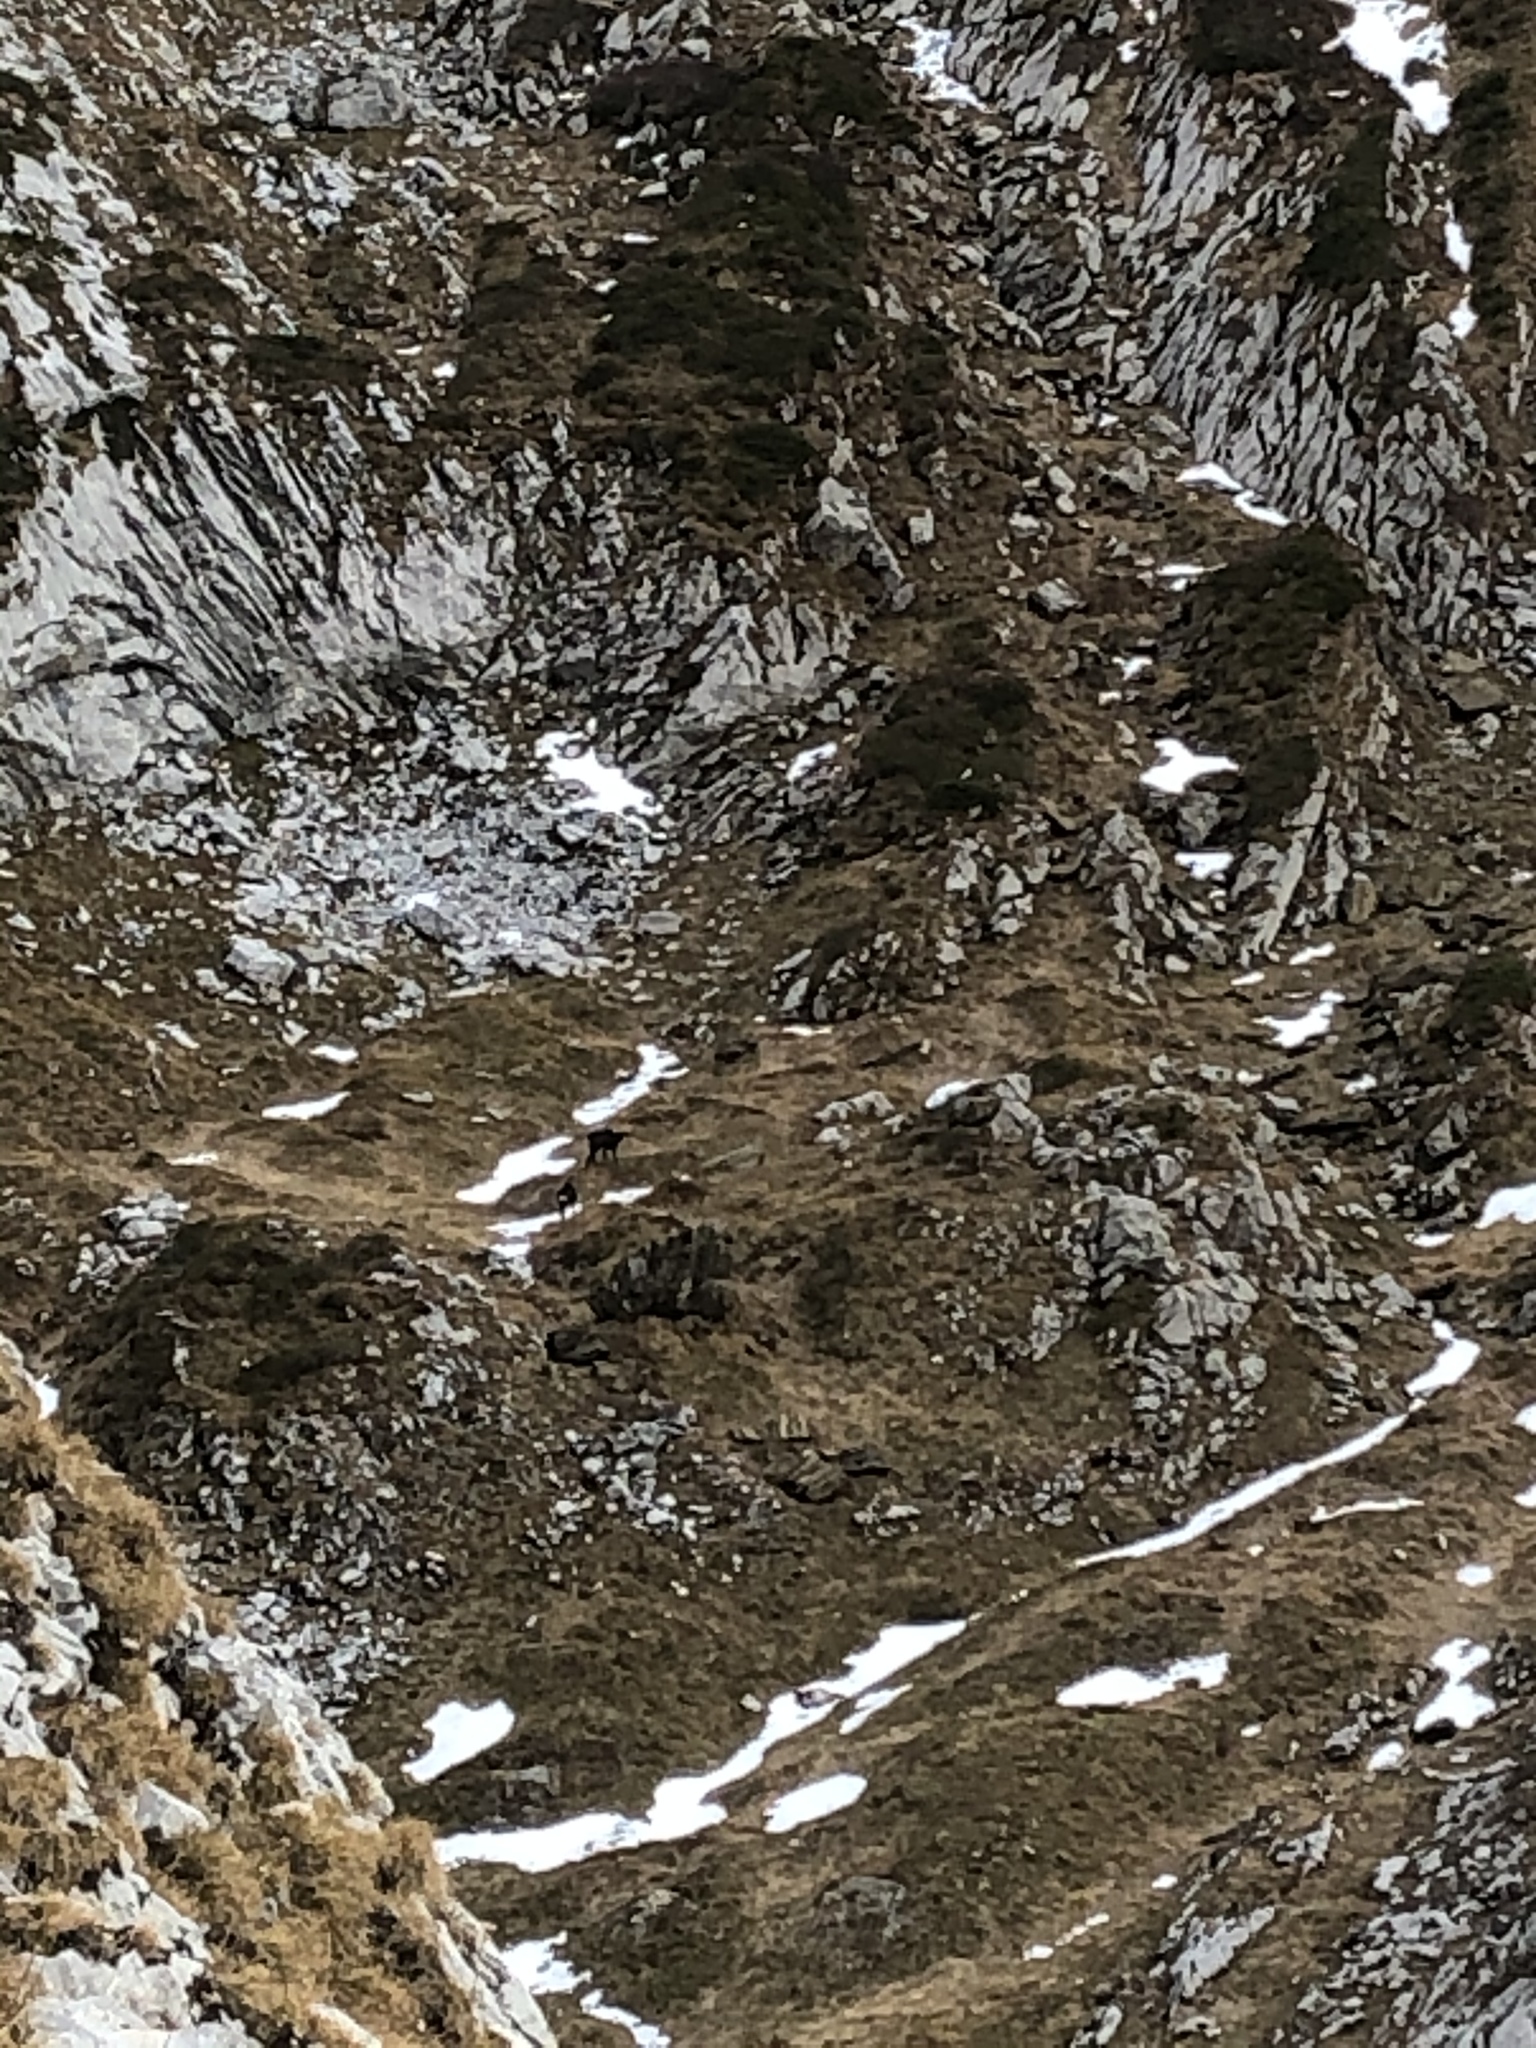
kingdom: Animalia
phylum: Chordata
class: Mammalia
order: Artiodactyla
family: Bovidae
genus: Rupicapra
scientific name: Rupicapra rupicapra
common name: Chamois
